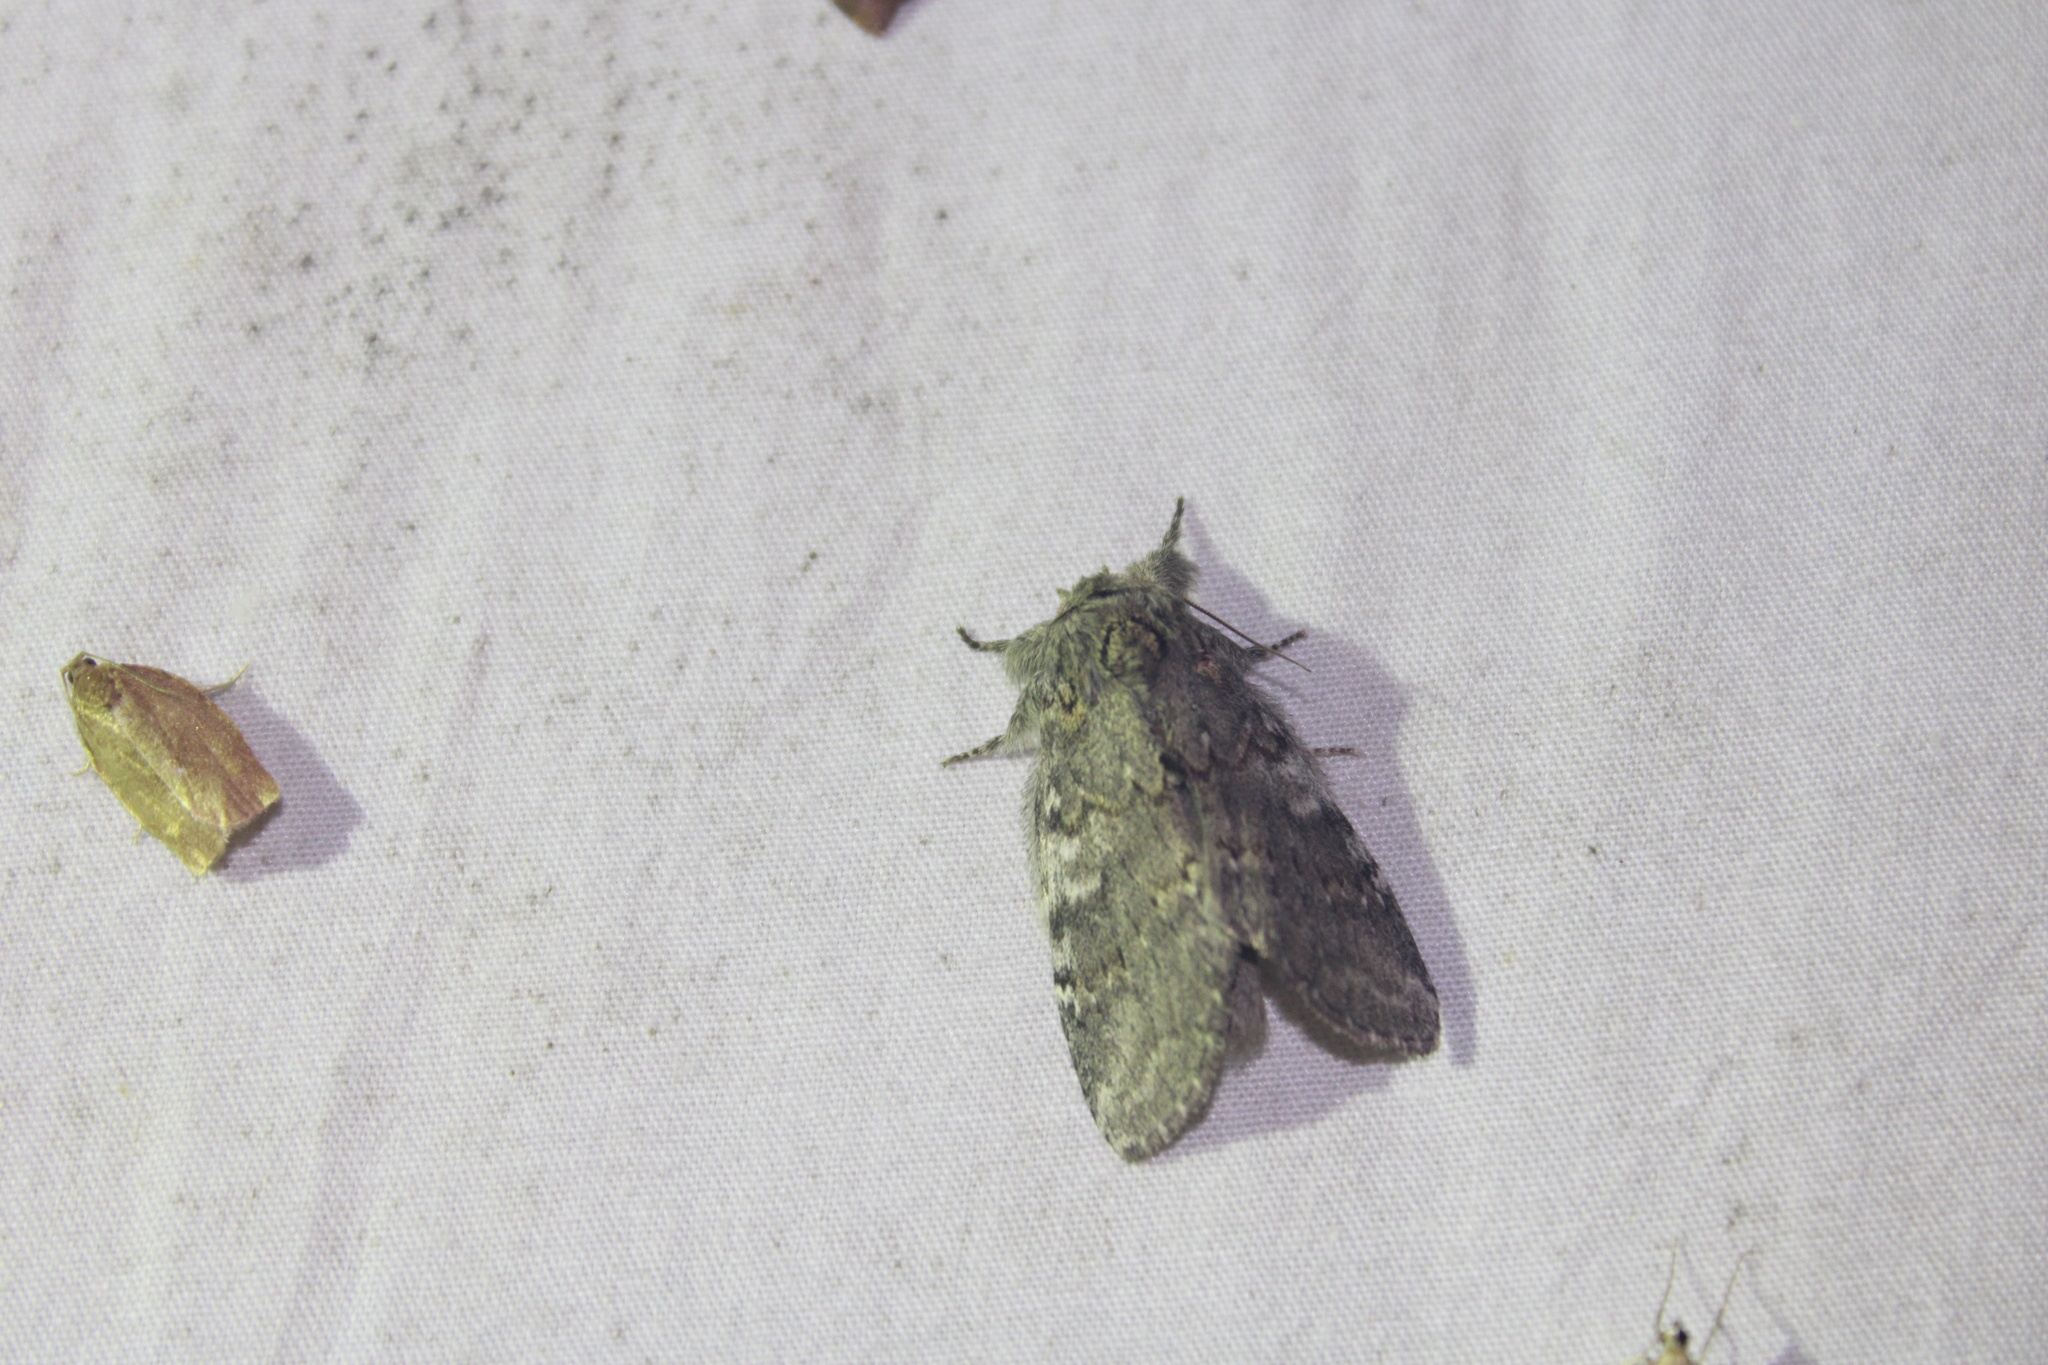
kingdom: Animalia
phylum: Arthropoda
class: Insecta
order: Lepidoptera
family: Notodontidae
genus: Peridea
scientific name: Peridea angulosa
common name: Angulose prominent
